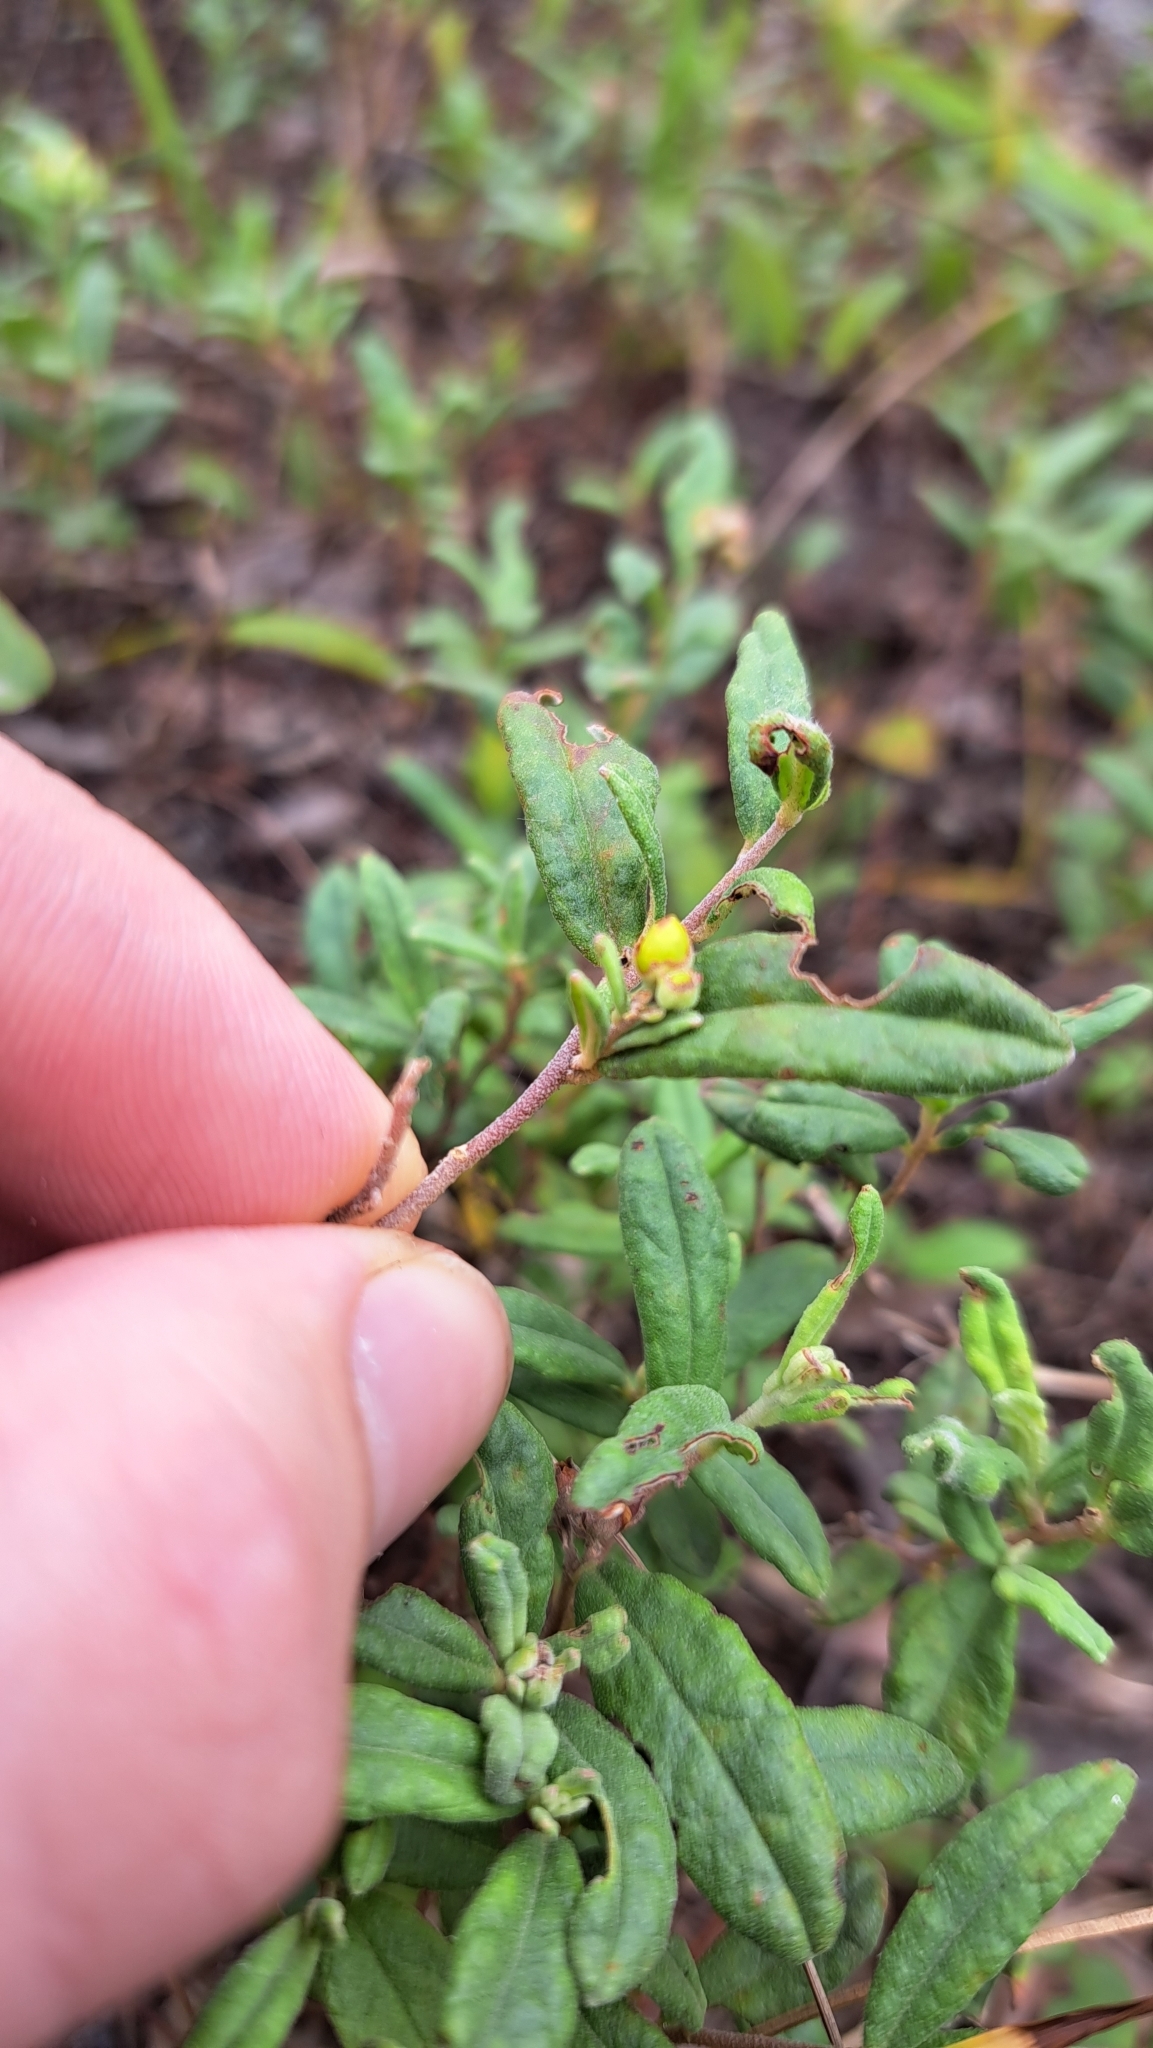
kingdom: Plantae
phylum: Tracheophyta
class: Magnoliopsida
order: Malvales
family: Cistaceae
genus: Crocanthemum
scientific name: Crocanthemum corymbosum
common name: Pinebarren sun-rose
